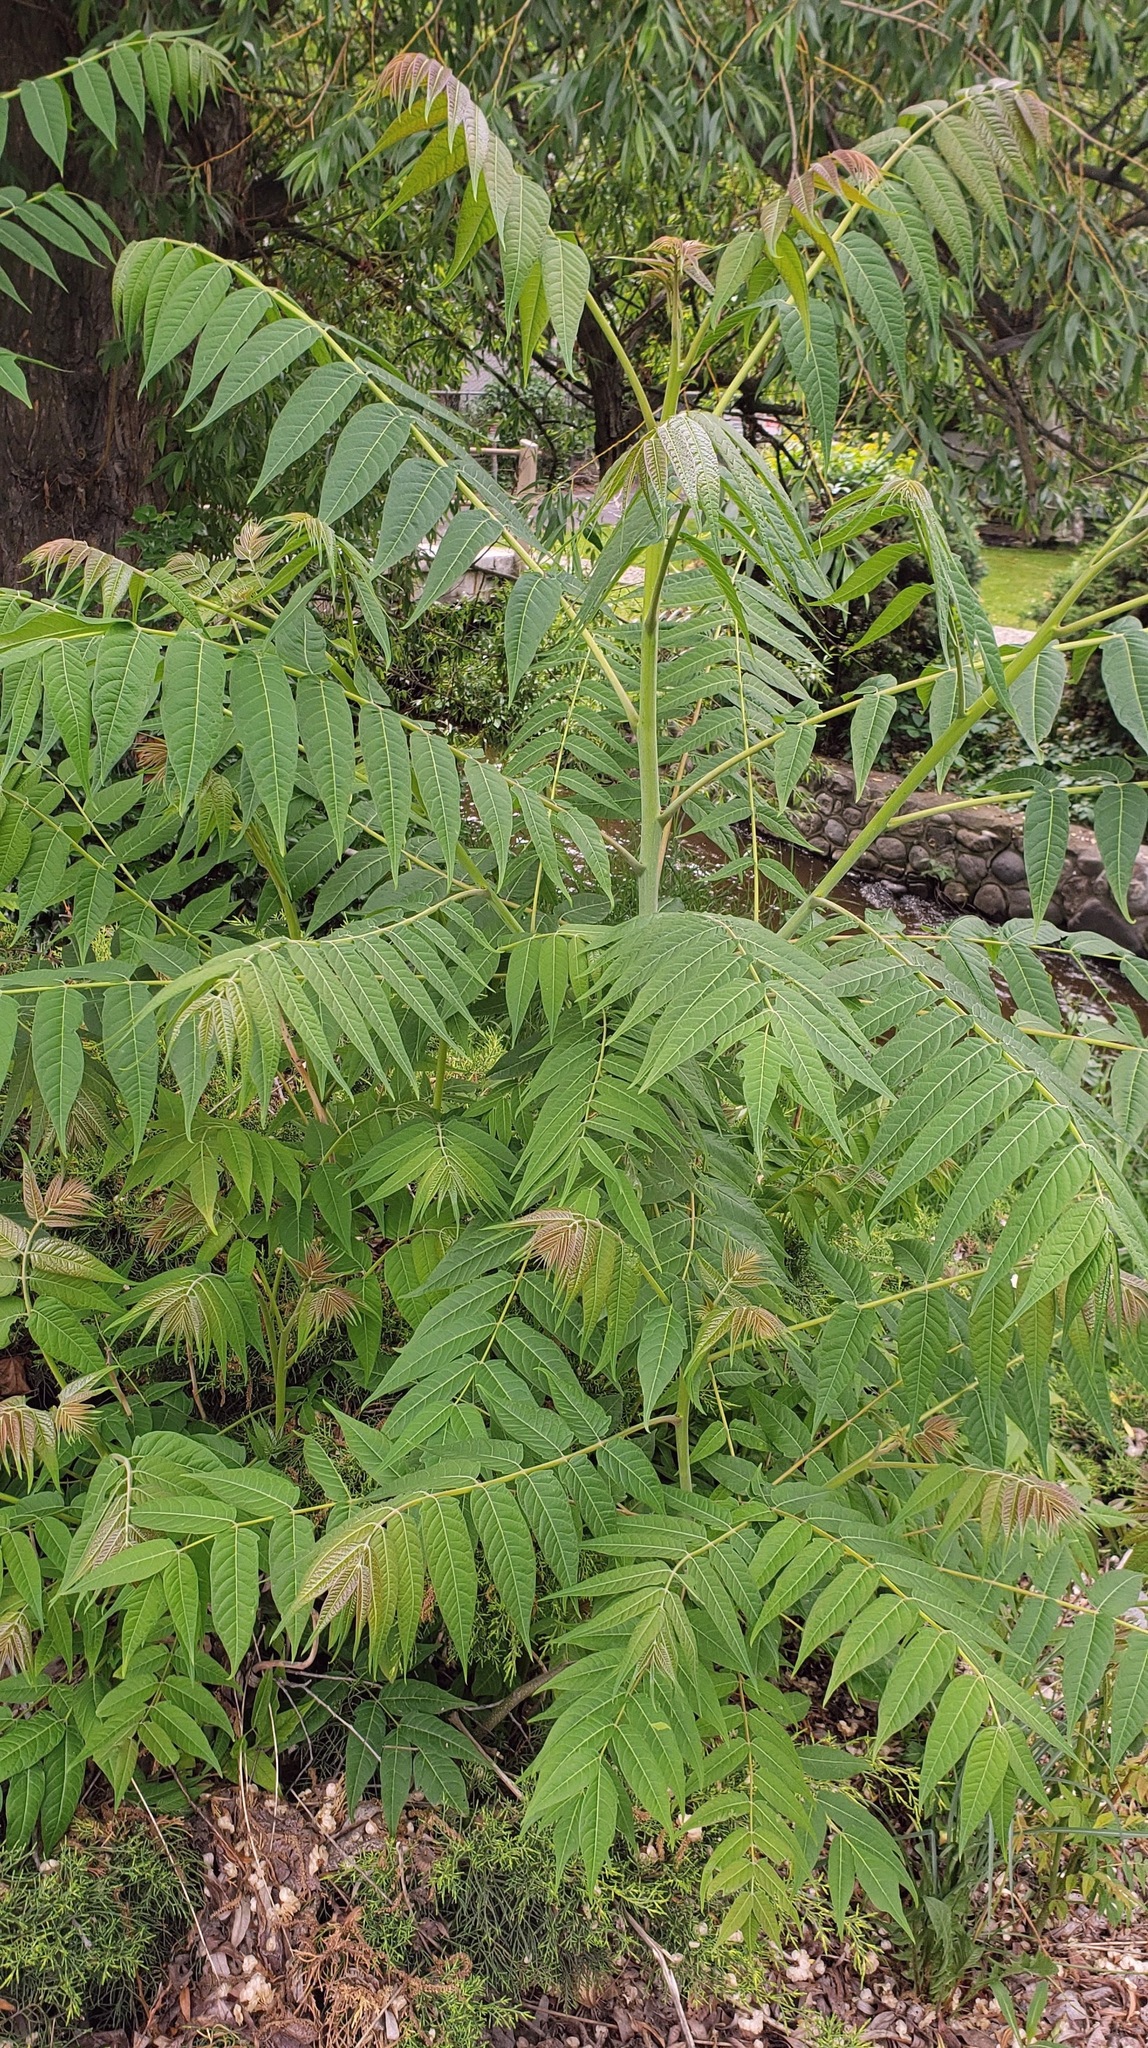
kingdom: Plantae
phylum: Tracheophyta
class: Magnoliopsida
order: Sapindales
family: Simaroubaceae
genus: Ailanthus
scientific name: Ailanthus altissima
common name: Tree-of-heaven
